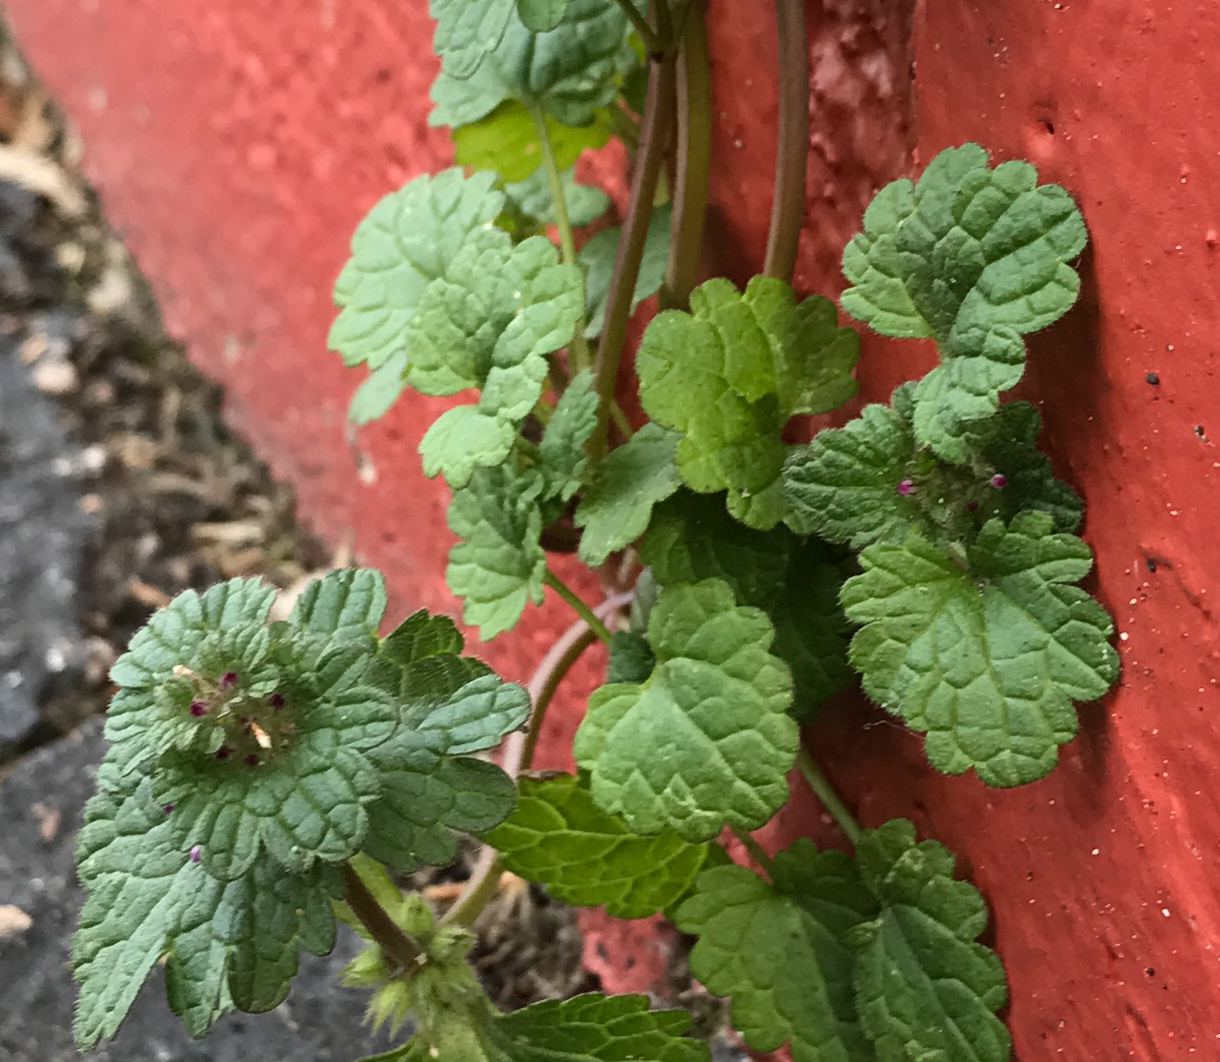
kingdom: Plantae
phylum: Tracheophyta
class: Magnoliopsida
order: Lamiales
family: Lamiaceae
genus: Lamium
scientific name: Lamium amplexicaule
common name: Henbit dead-nettle
